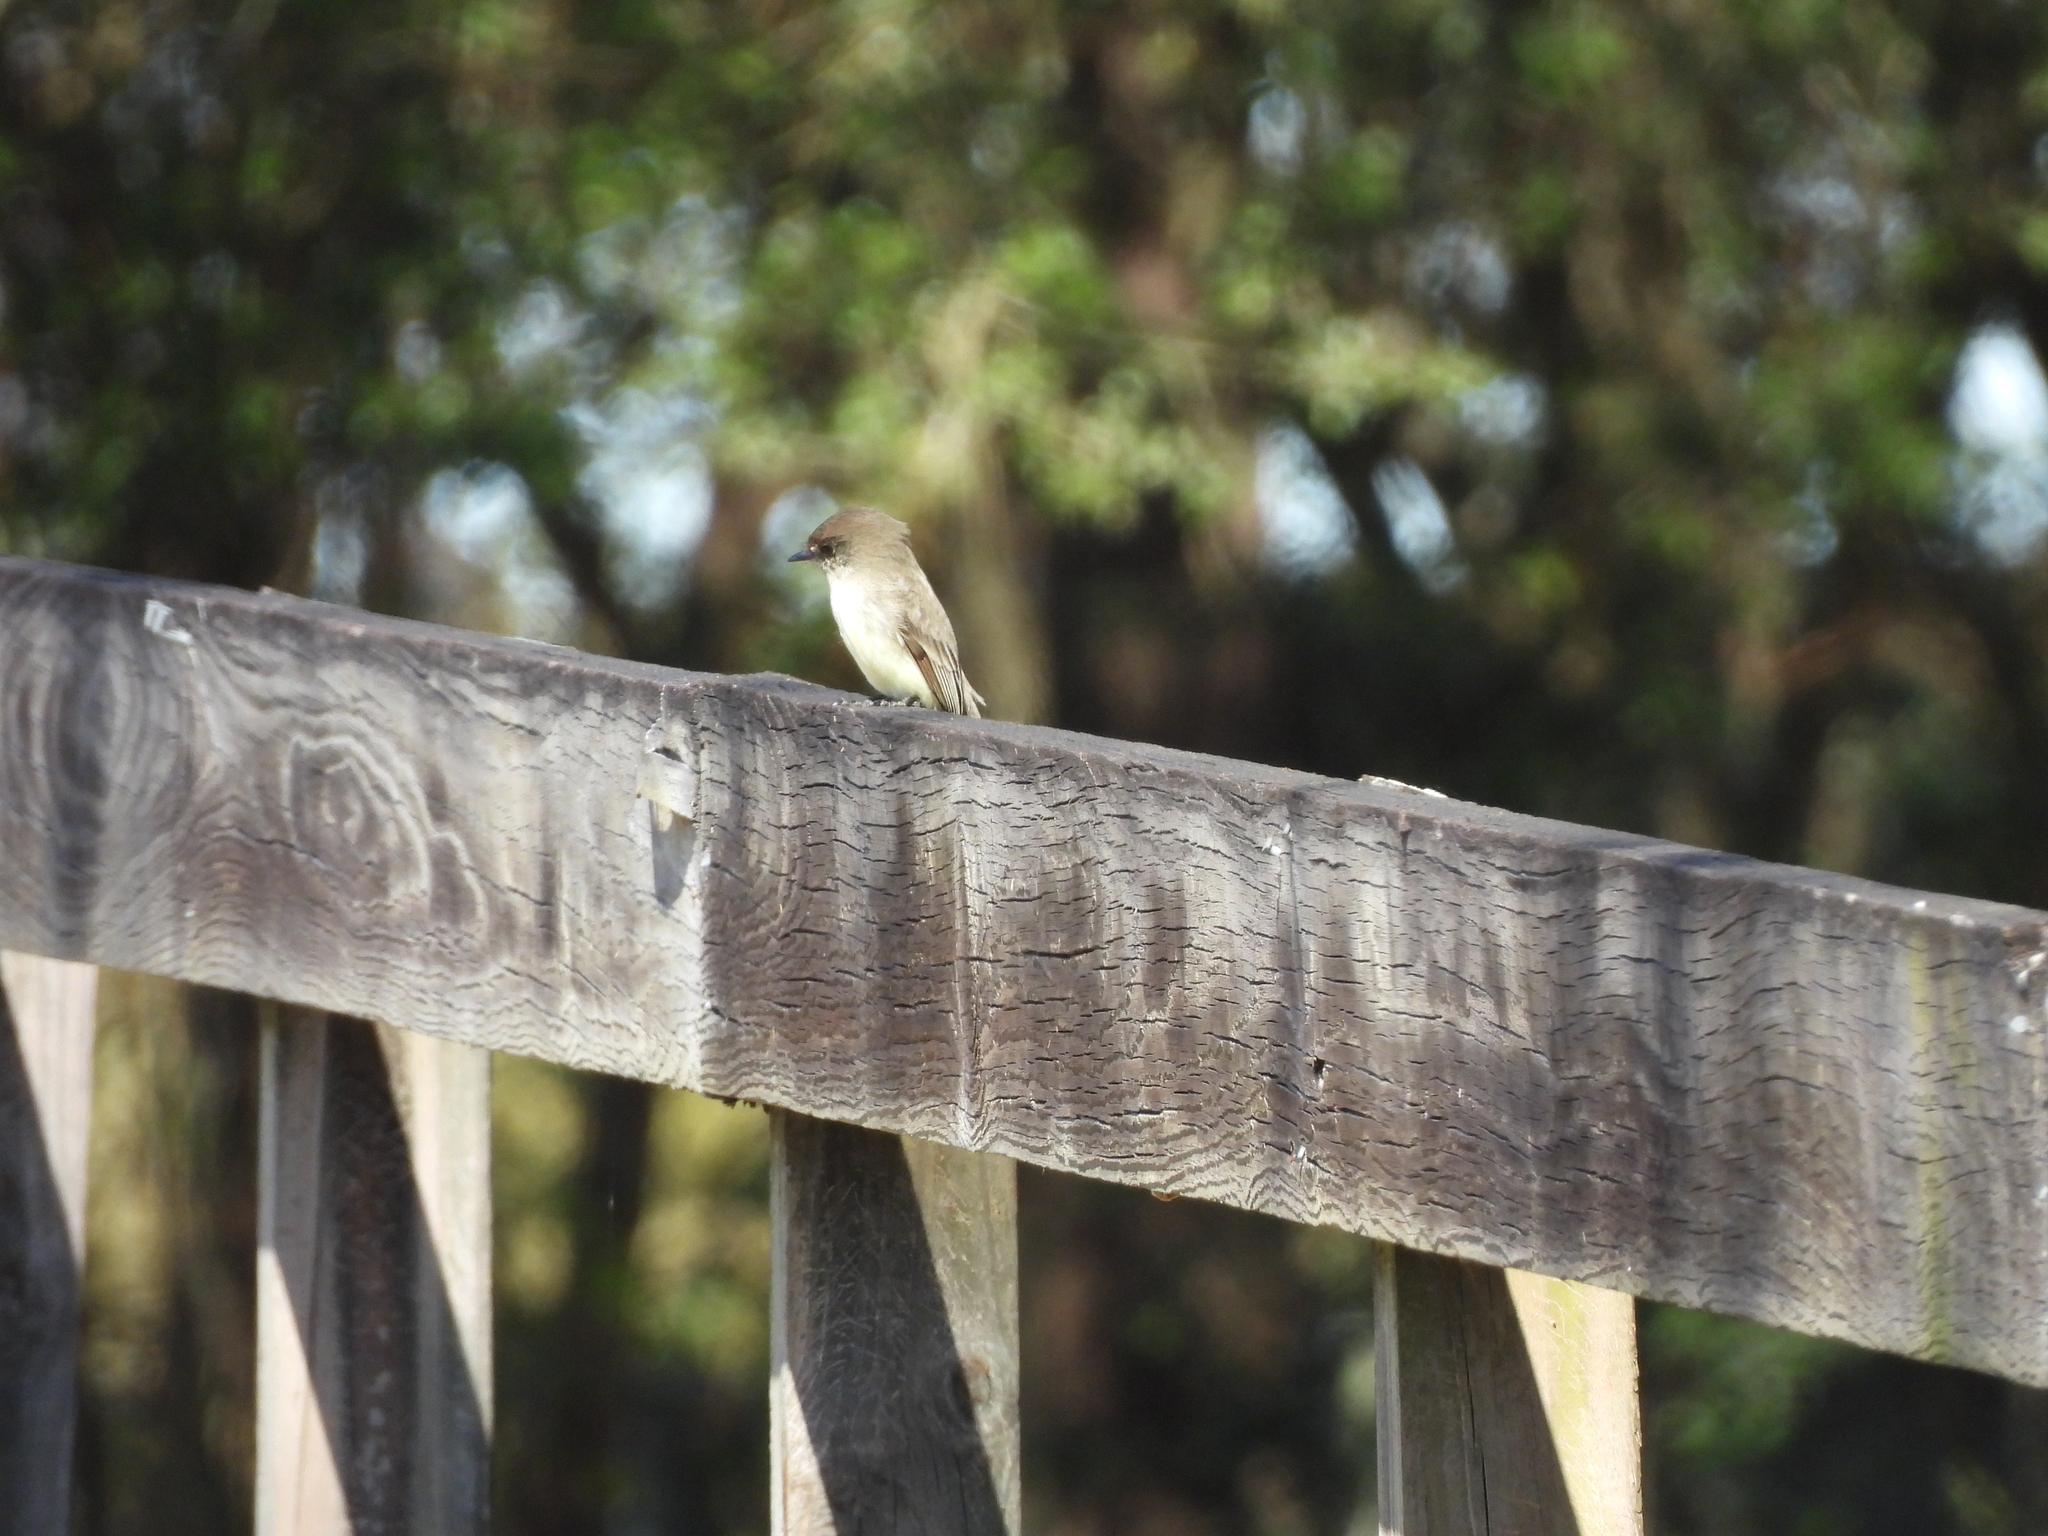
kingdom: Animalia
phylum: Chordata
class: Aves
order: Passeriformes
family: Tyrannidae
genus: Sayornis
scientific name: Sayornis phoebe
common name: Eastern phoebe
